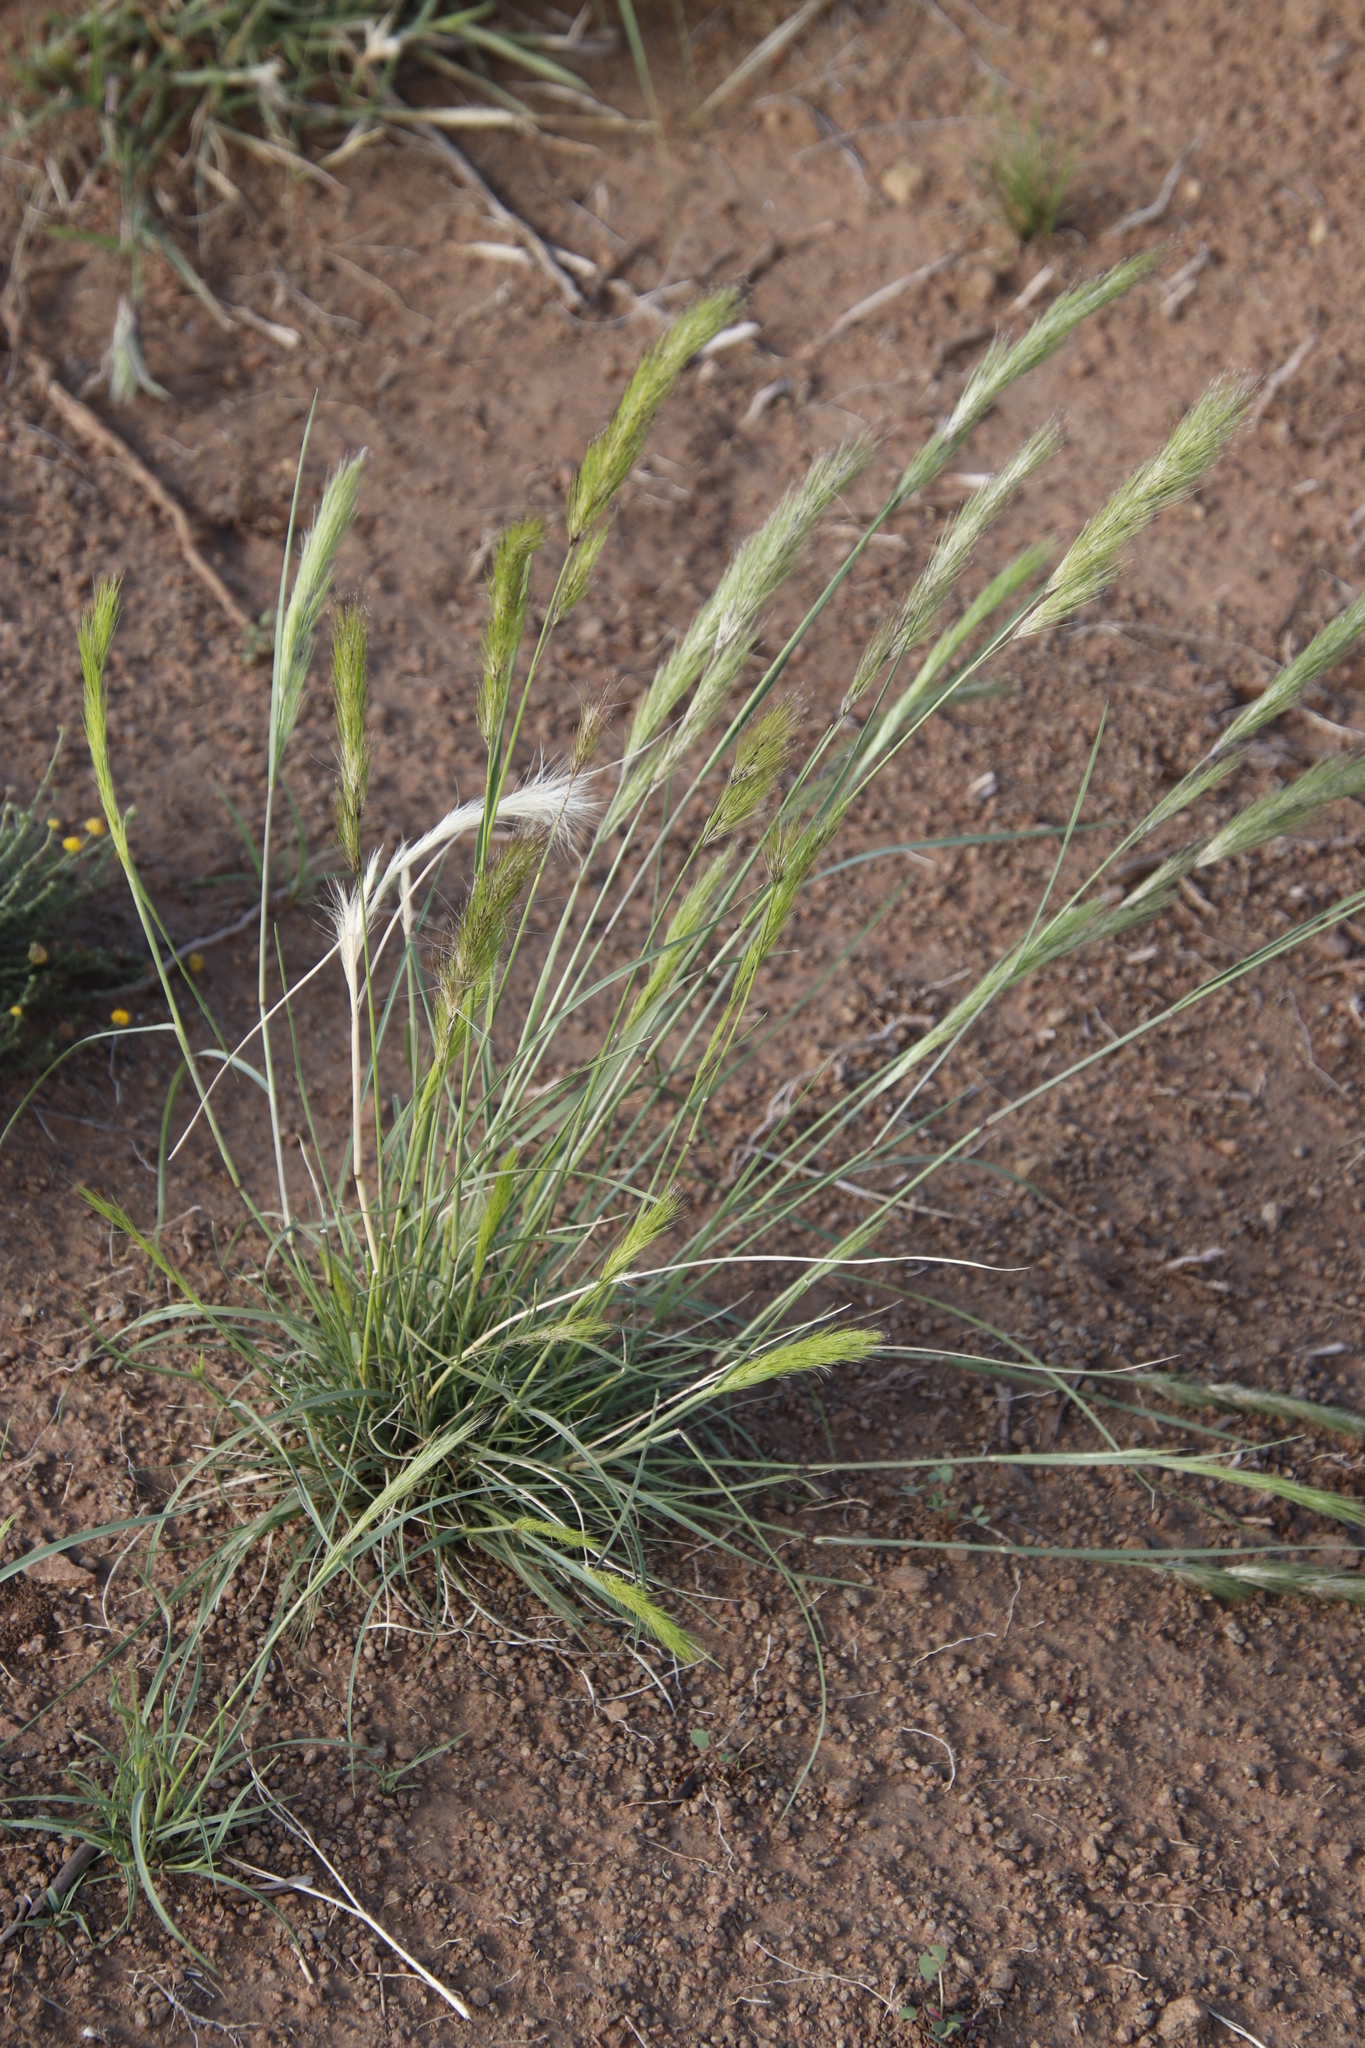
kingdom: Plantae
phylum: Tracheophyta
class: Liliopsida
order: Poales
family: Poaceae
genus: Aristida
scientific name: Aristida congesta
